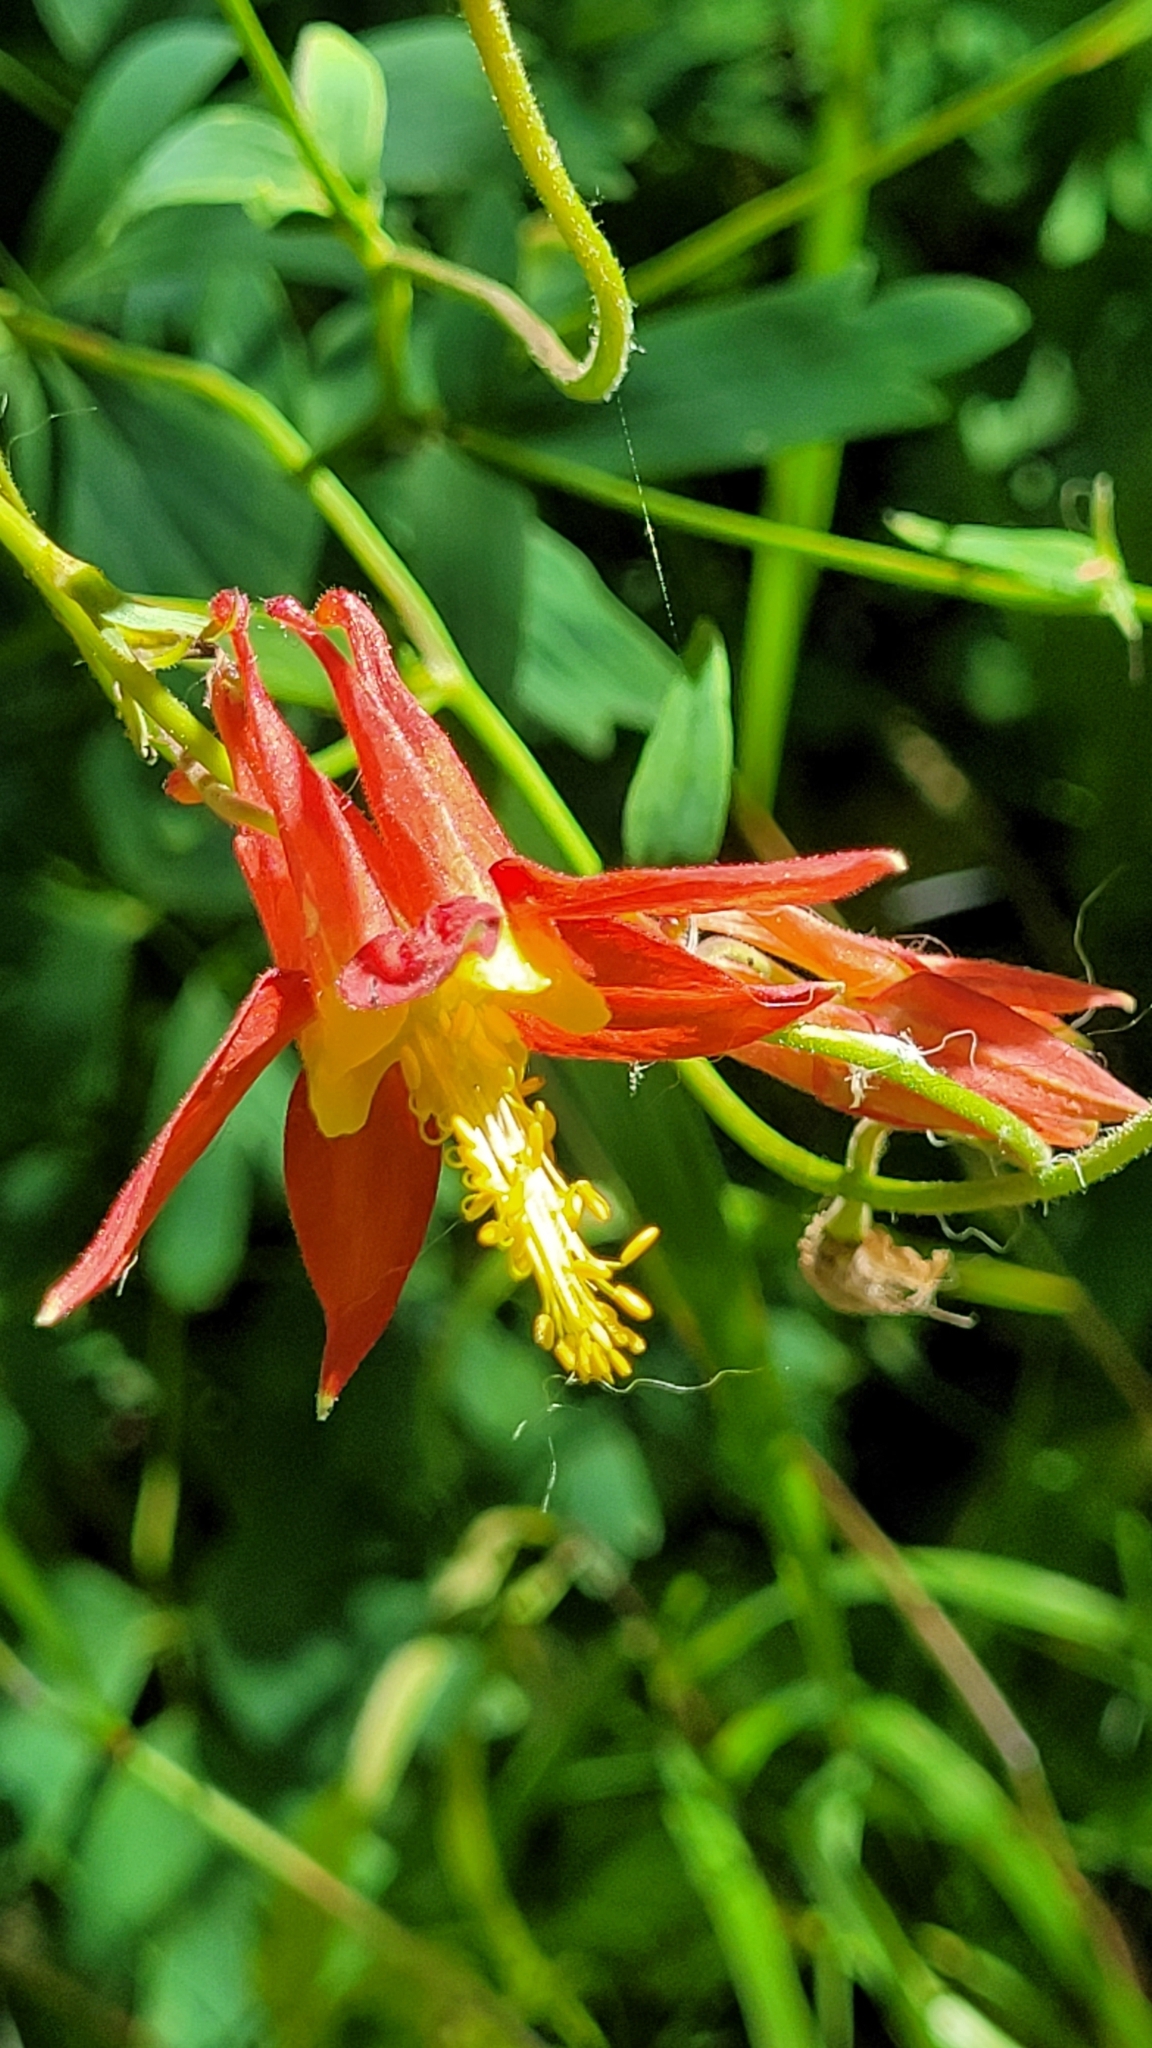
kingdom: Plantae
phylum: Tracheophyta
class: Magnoliopsida
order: Ranunculales
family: Ranunculaceae
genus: Aquilegia
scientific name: Aquilegia formosa
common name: Sitka columbine
